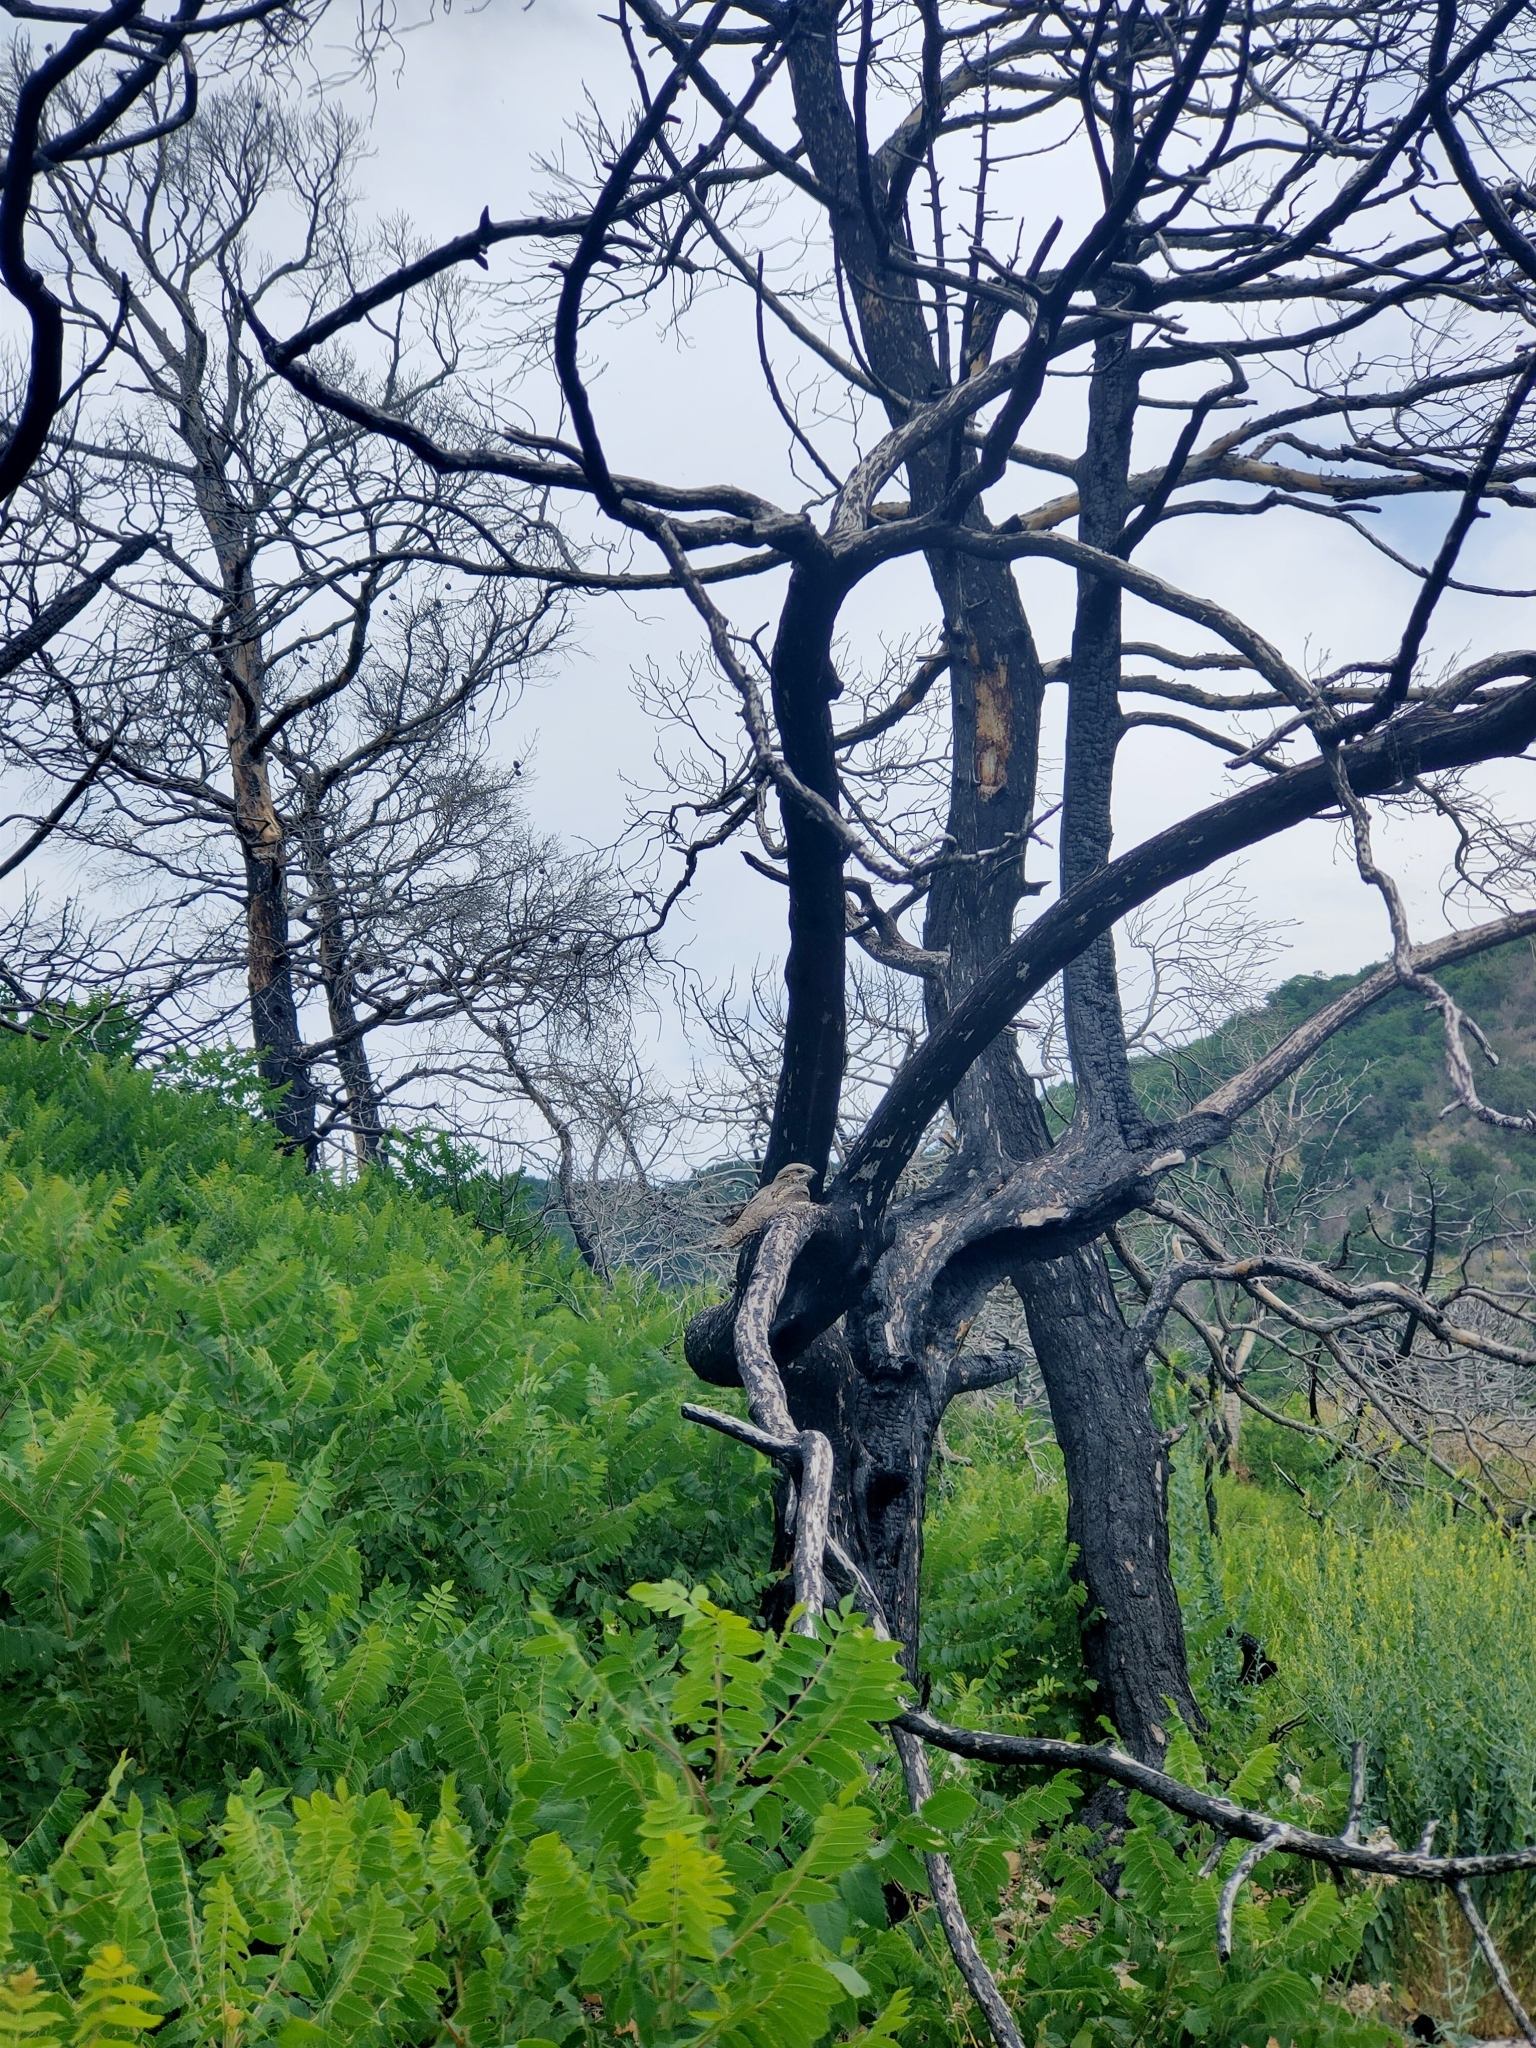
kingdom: Animalia
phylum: Chordata
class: Aves
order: Caprimulgiformes
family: Caprimulgidae
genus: Caprimulgus
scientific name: Caprimulgus europaeus
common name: European nightjar
